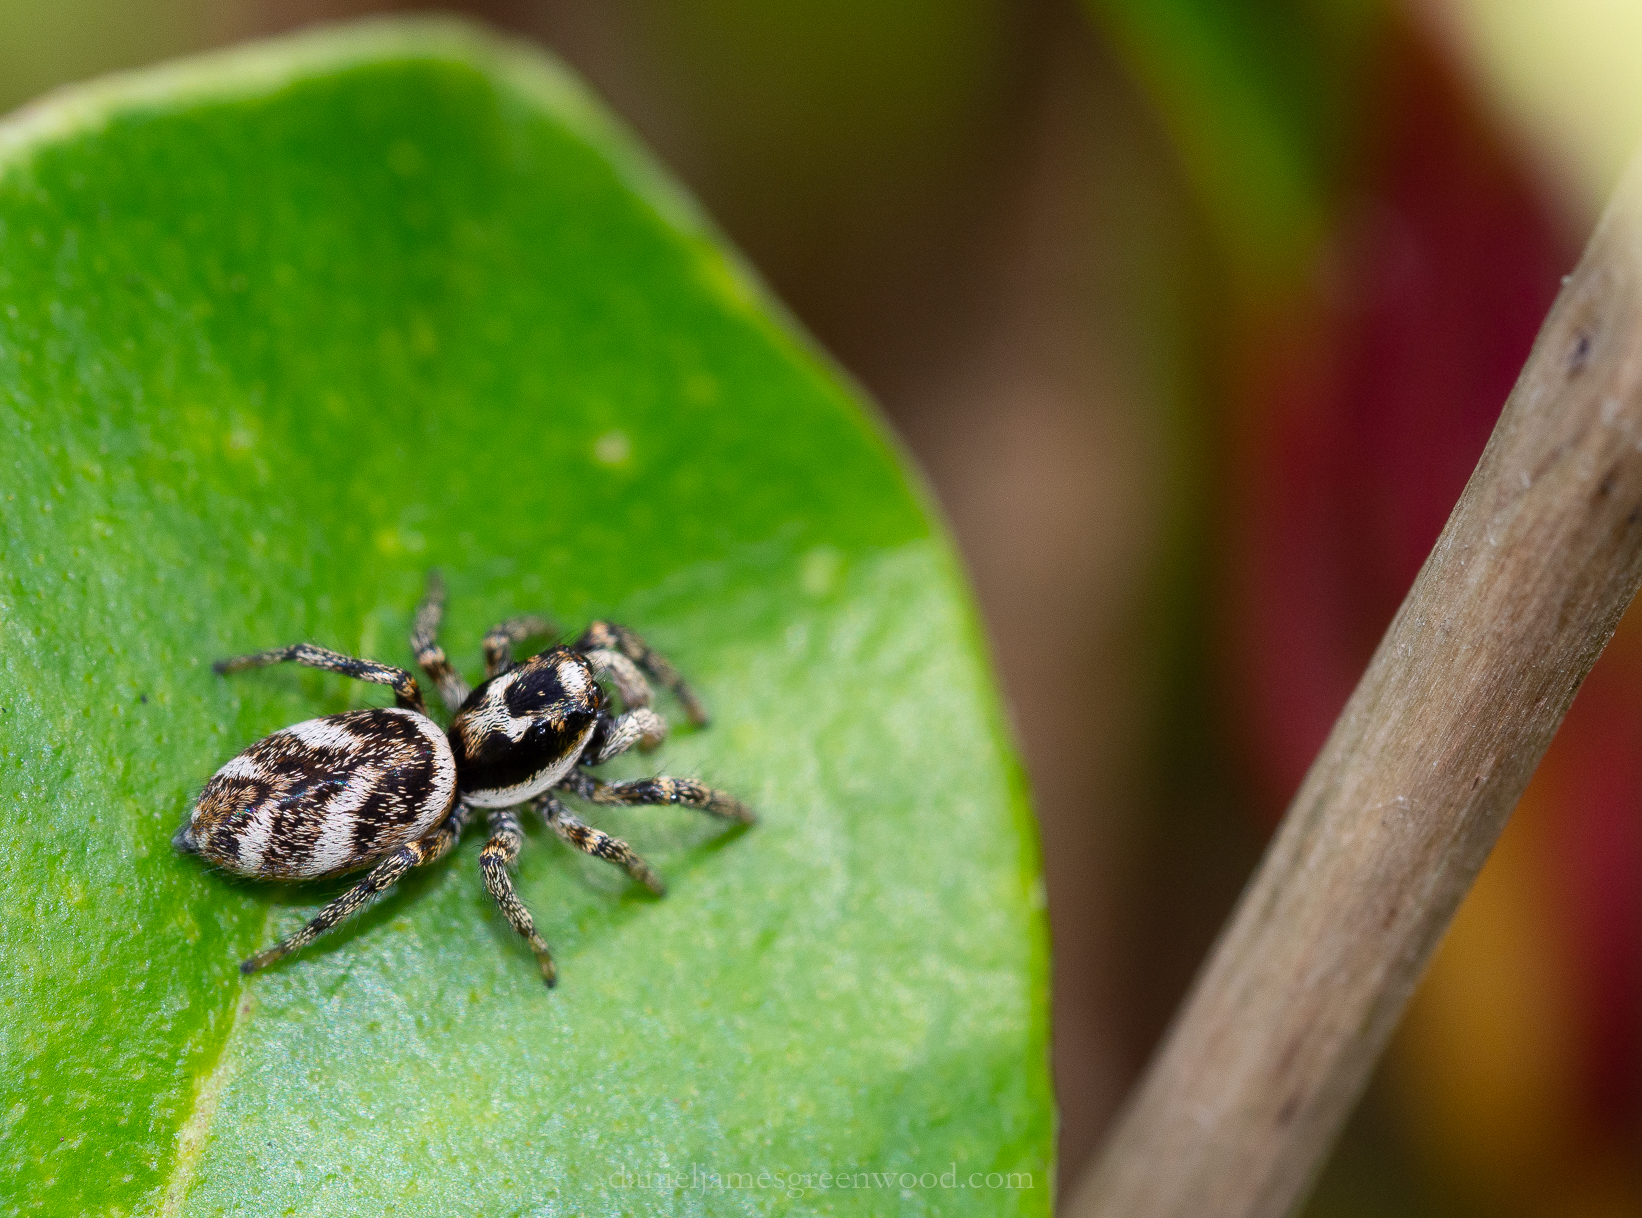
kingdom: Animalia
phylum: Arthropoda
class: Arachnida
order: Araneae
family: Salticidae
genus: Salticus
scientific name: Salticus scenicus
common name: Zebra jumper
